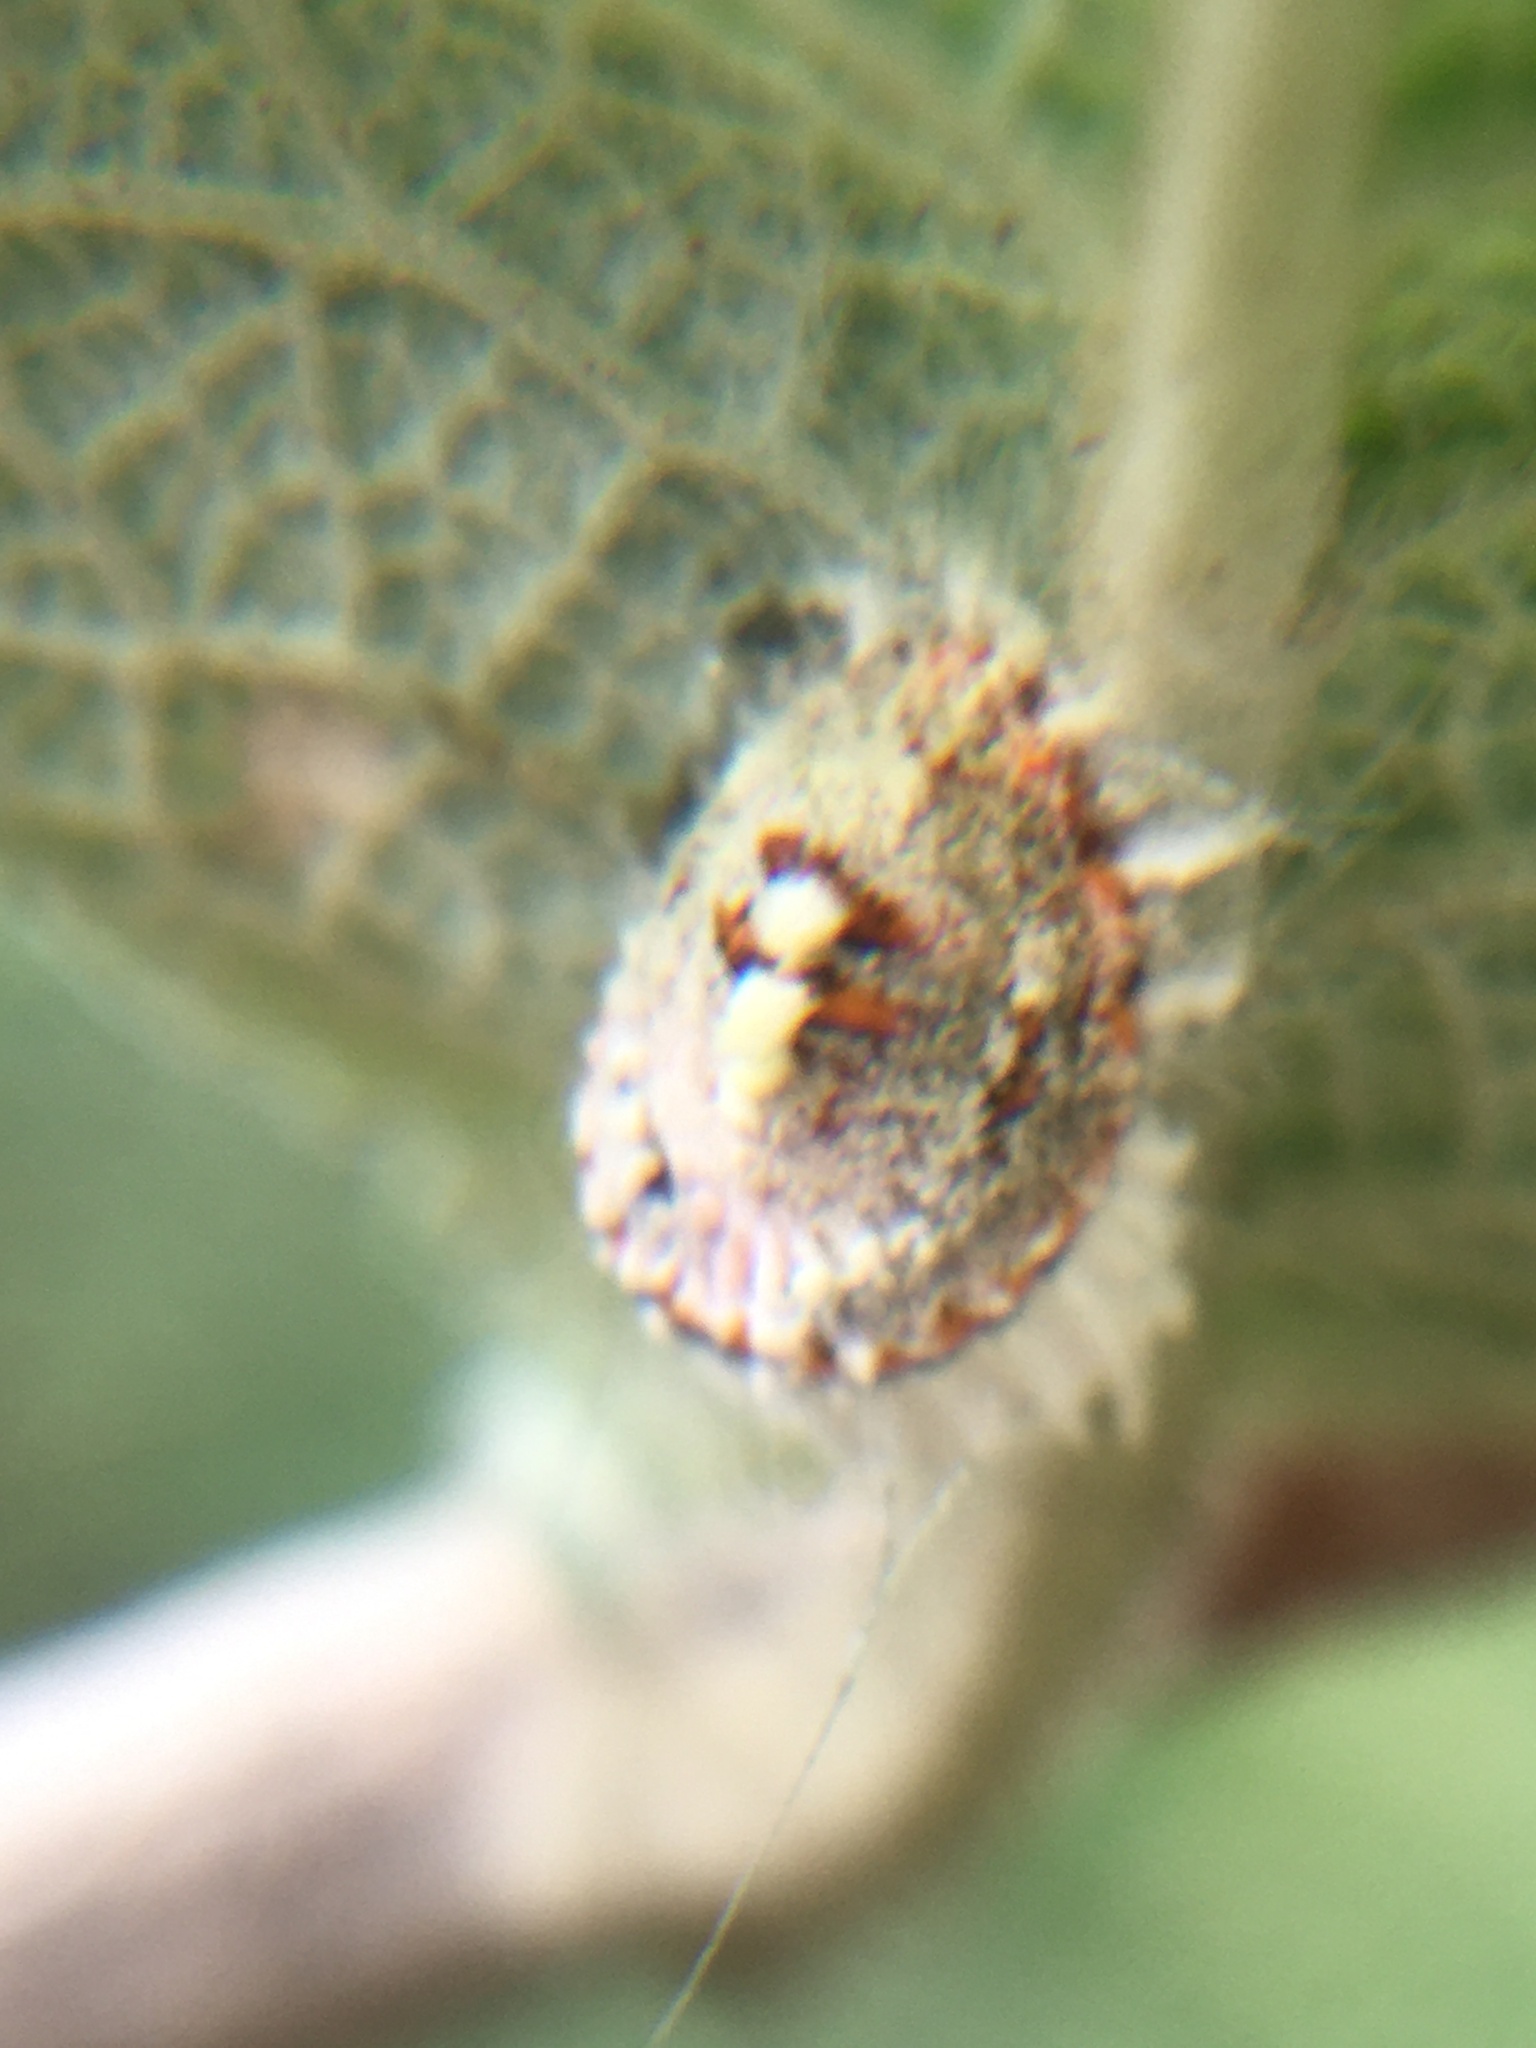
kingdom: Animalia
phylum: Arthropoda
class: Insecta
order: Hemiptera
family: Margarodidae
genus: Icerya
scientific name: Icerya purchasi
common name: Cottony cushion scale
